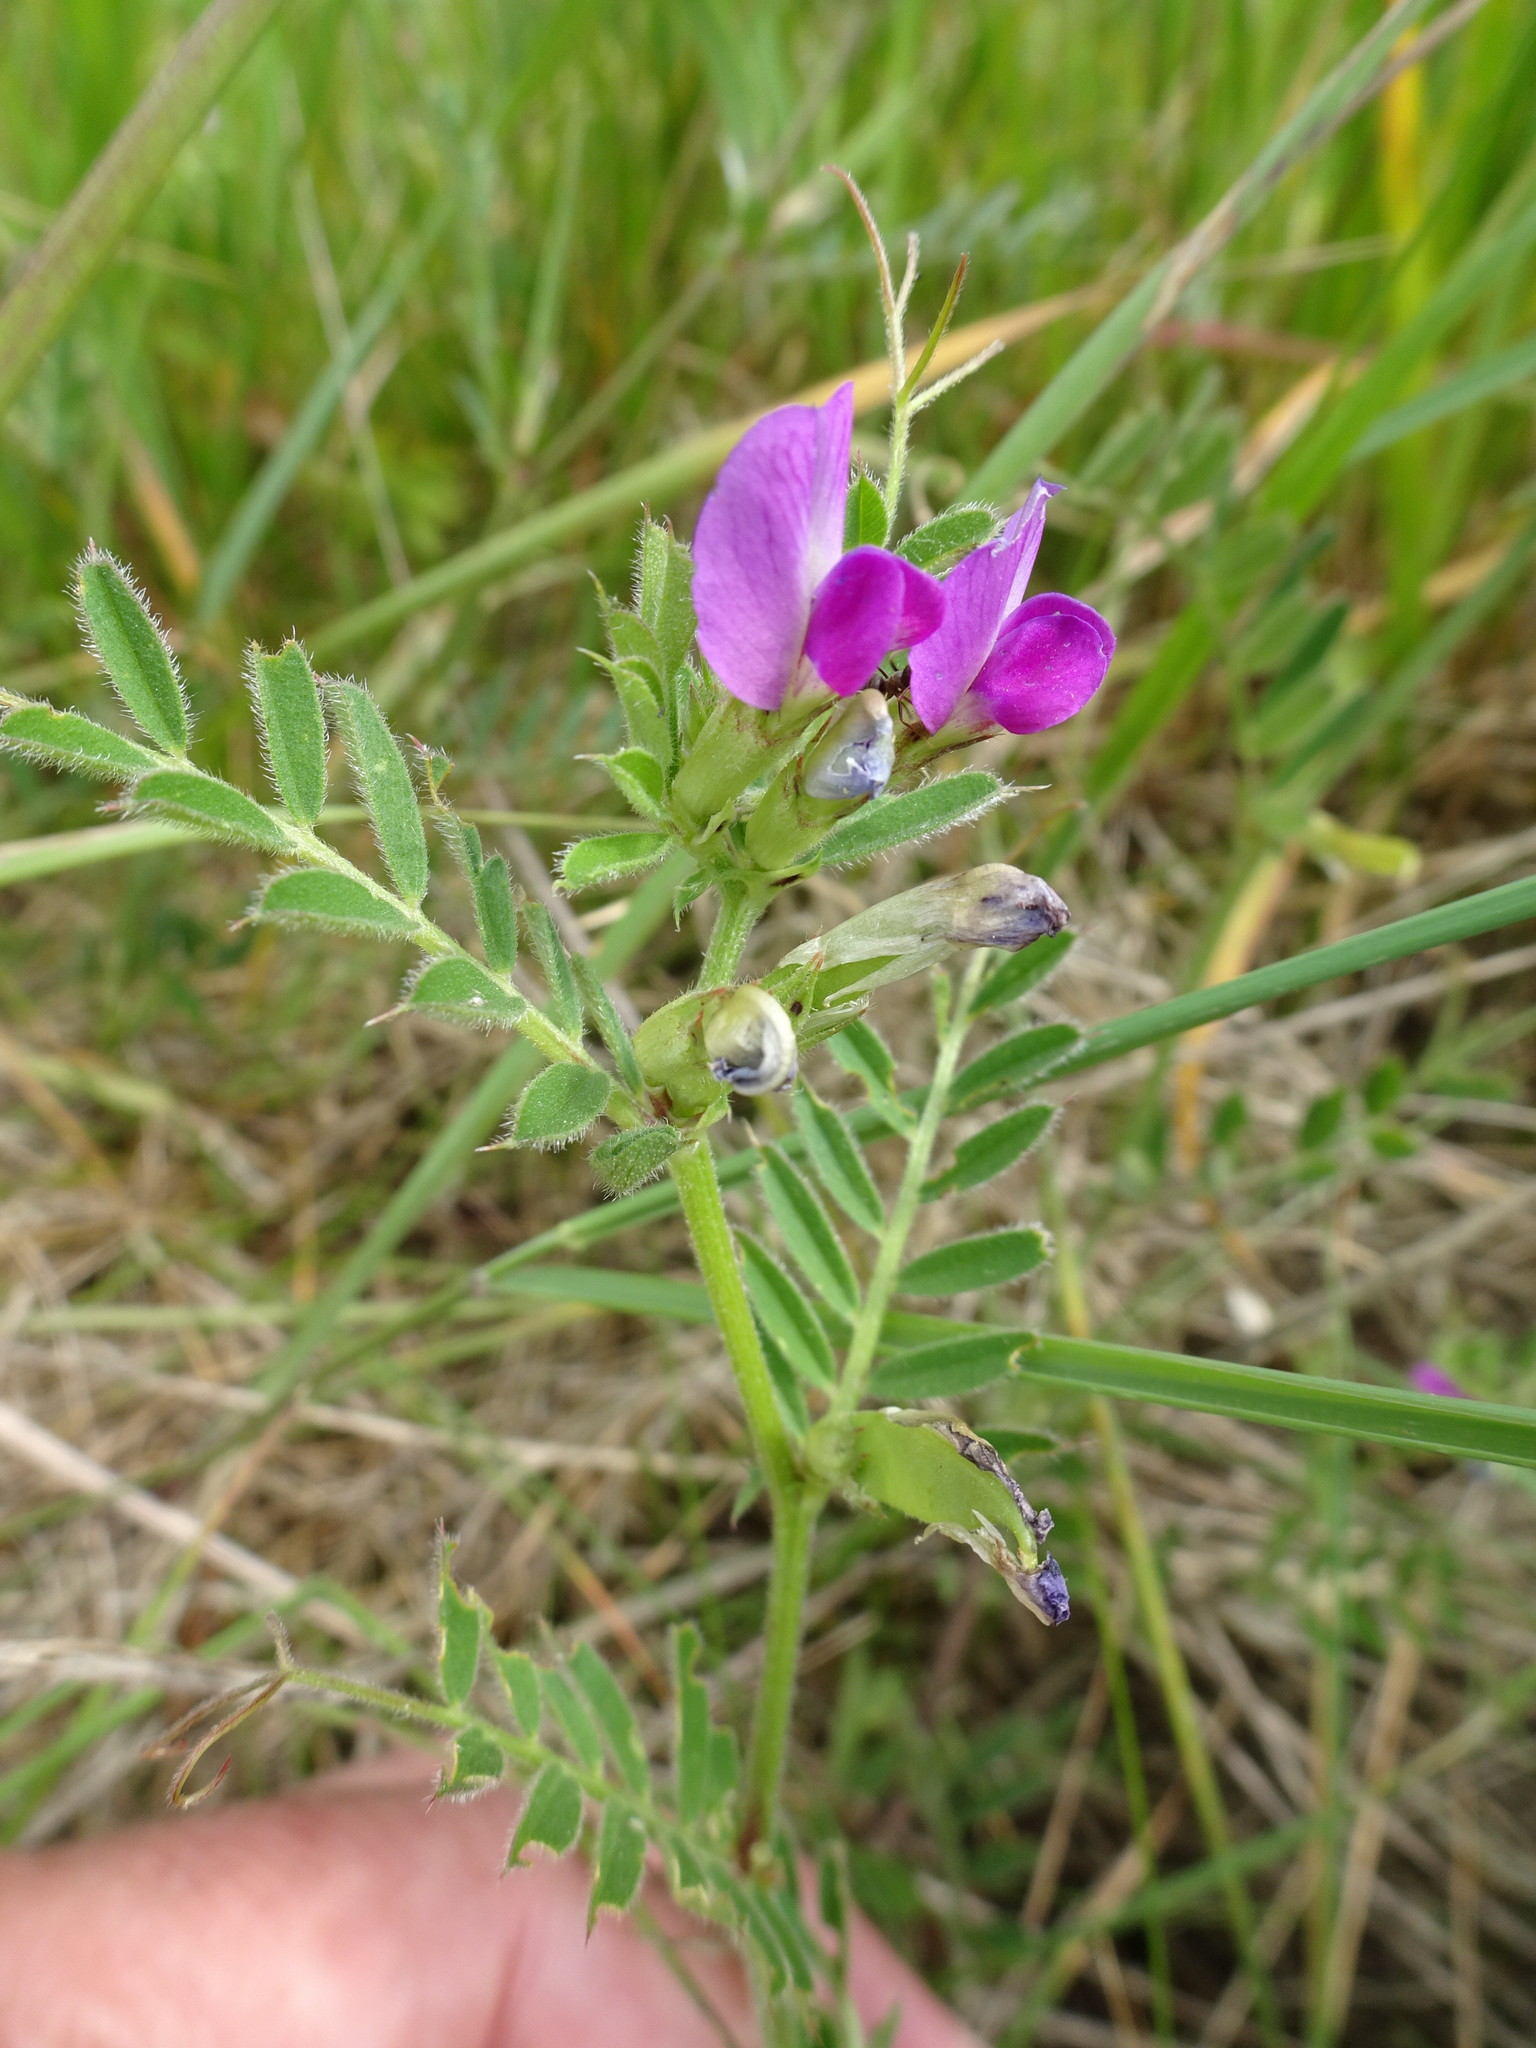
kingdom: Plantae
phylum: Tracheophyta
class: Magnoliopsida
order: Fabales
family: Fabaceae
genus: Vicia
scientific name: Vicia sativa
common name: Garden vetch
